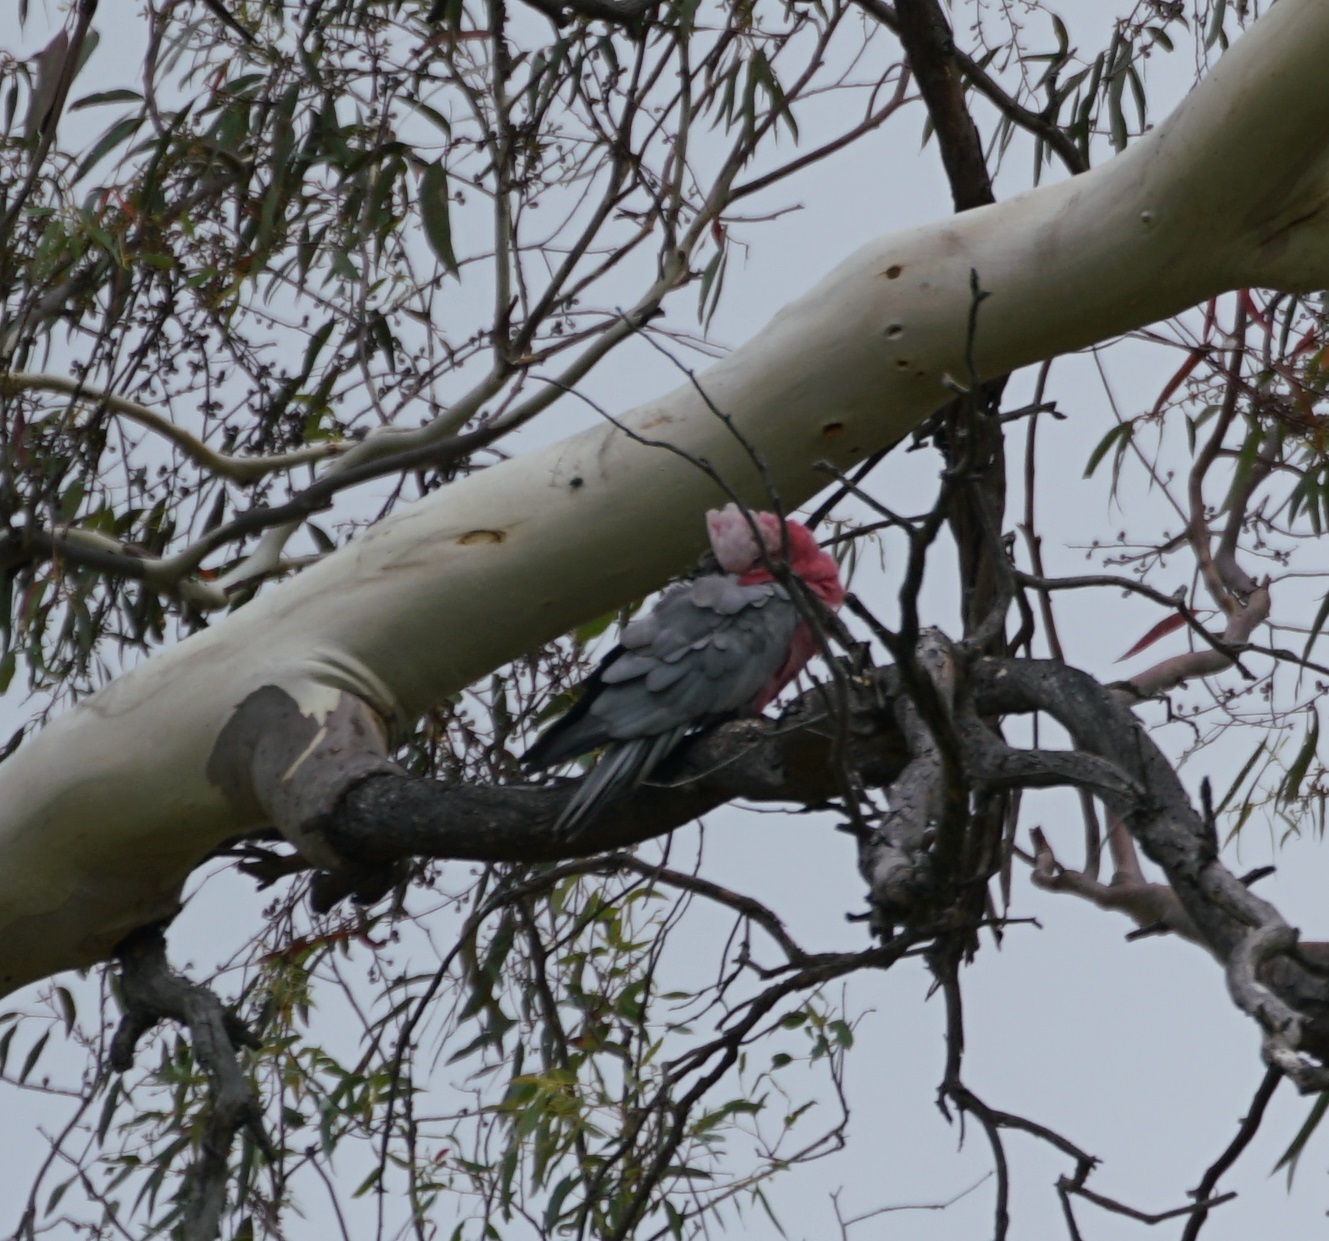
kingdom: Animalia
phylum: Chordata
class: Aves
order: Psittaciformes
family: Psittacidae
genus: Eolophus
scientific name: Eolophus roseicapilla
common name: Galah
